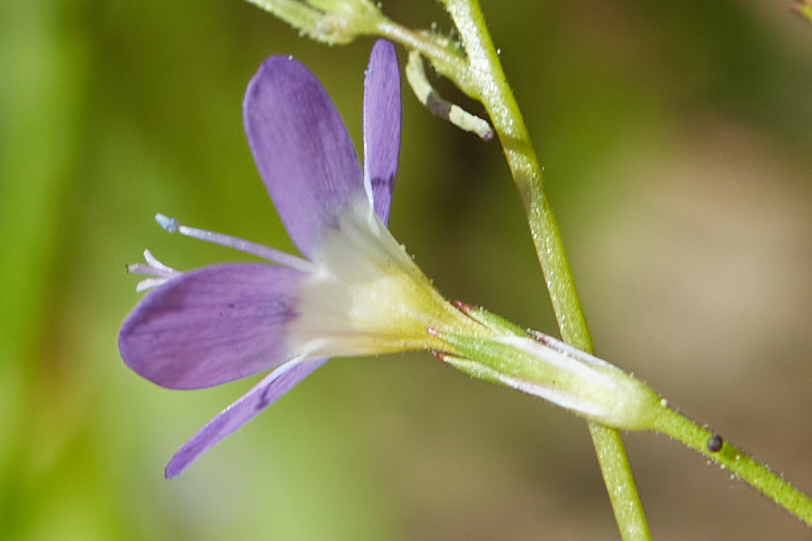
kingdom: Plantae
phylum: Tracheophyta
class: Magnoliopsida
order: Ericales
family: Polemoniaceae
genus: Navarretia
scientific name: Navarretia leptalea
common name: Bridges' pincushionplant
